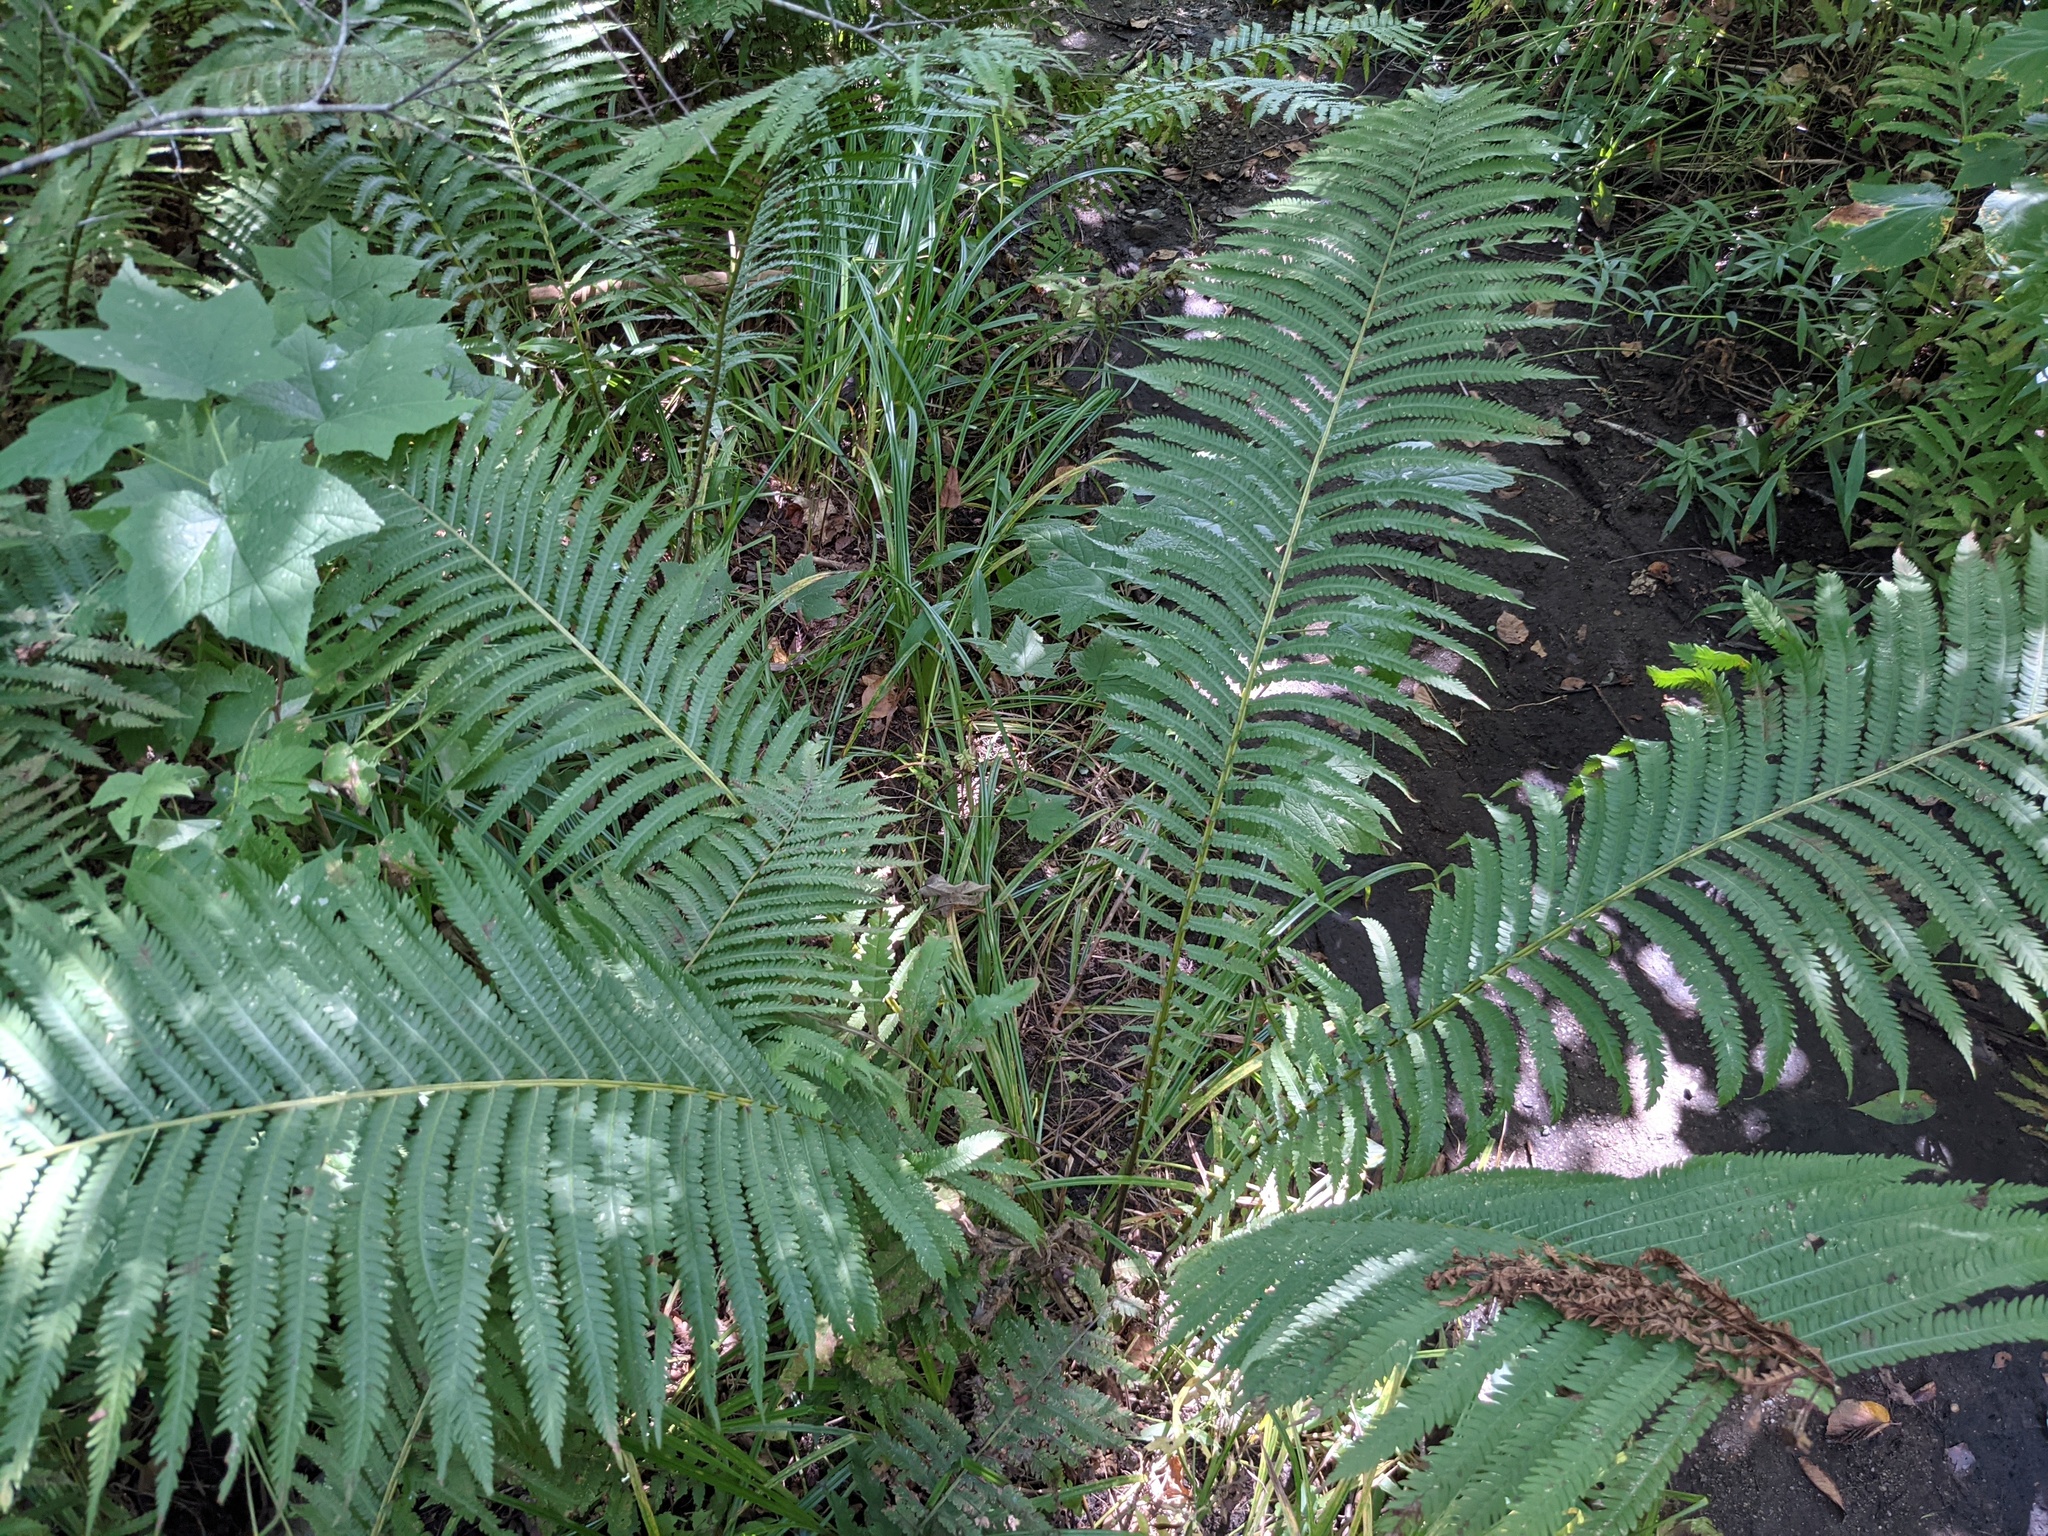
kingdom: Plantae
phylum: Tracheophyta
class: Polypodiopsida
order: Polypodiales
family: Onocleaceae
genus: Matteuccia
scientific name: Matteuccia struthiopteris
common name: Ostrich fern
